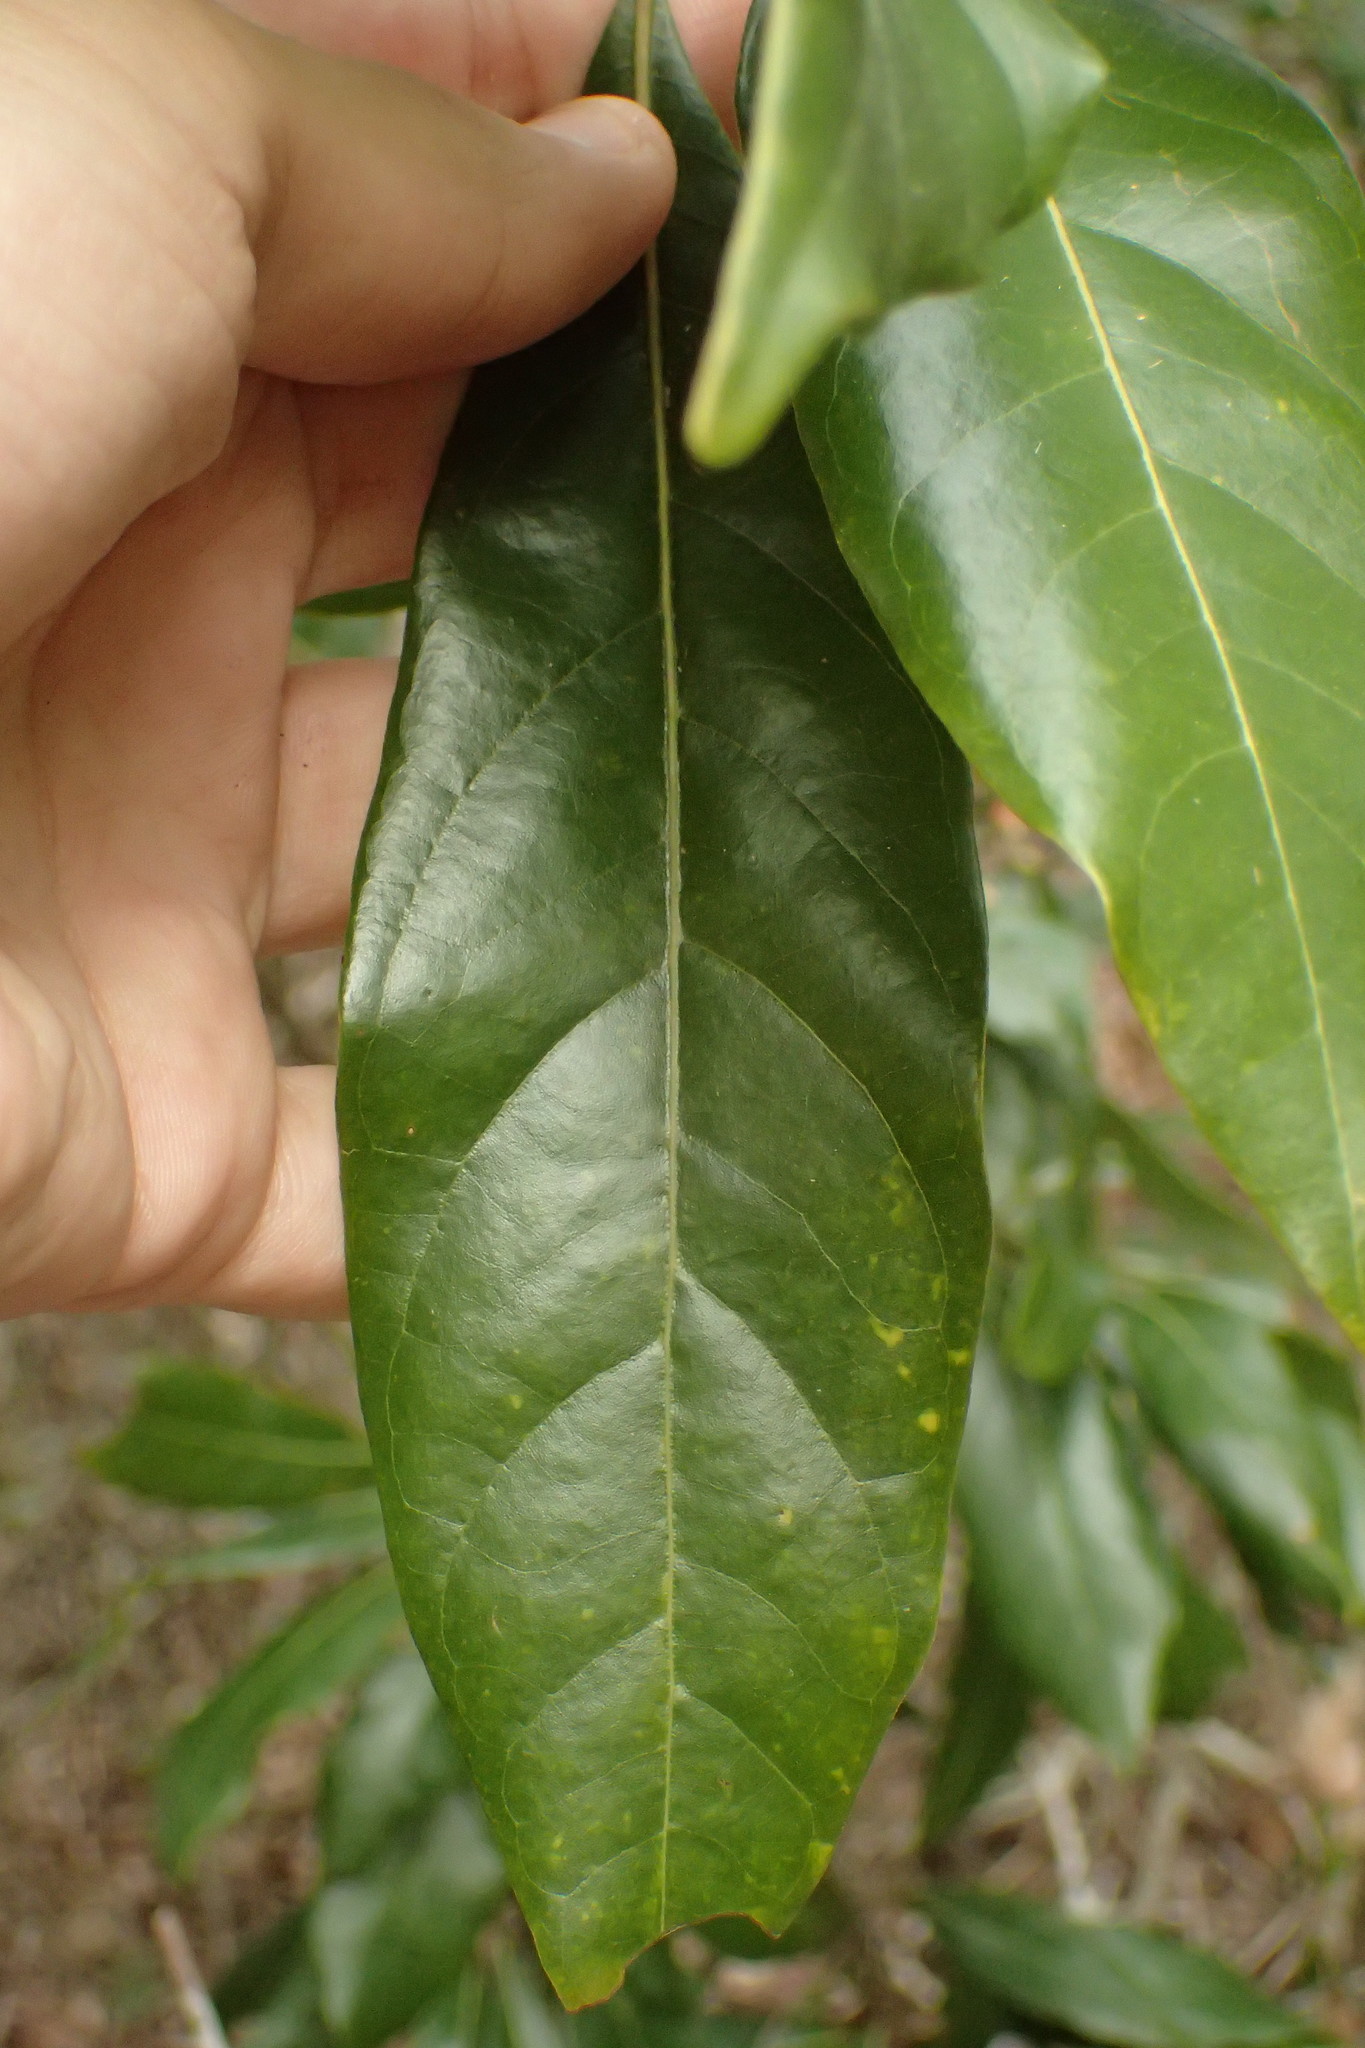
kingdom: Plantae
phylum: Tracheophyta
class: Magnoliopsida
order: Laurales
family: Lauraceae
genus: Persea
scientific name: Persea borbonia
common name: Redbay
